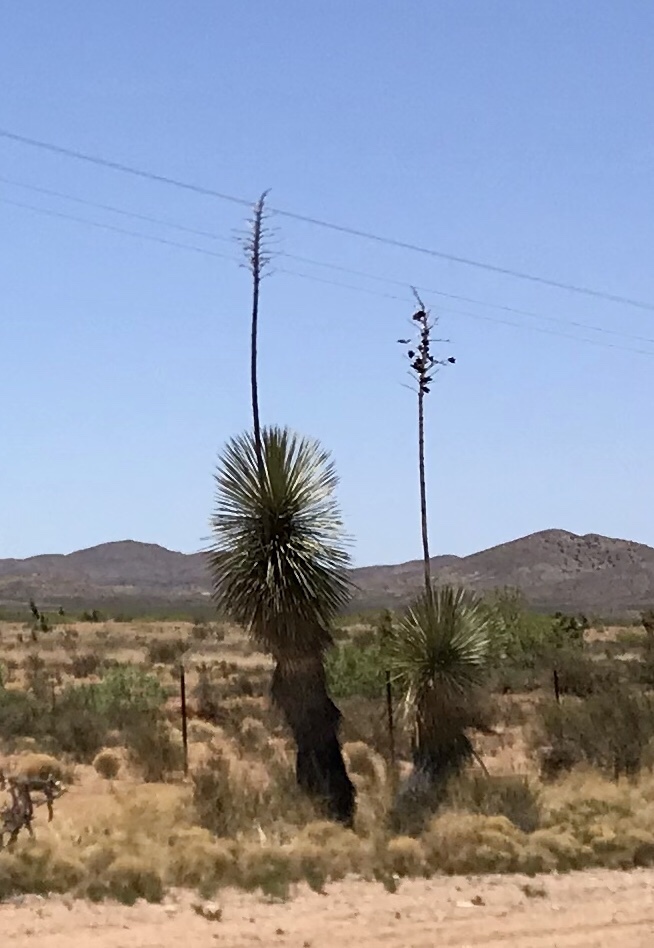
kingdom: Plantae
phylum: Tracheophyta
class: Liliopsida
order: Asparagales
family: Asparagaceae
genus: Yucca
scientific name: Yucca elata
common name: Palmella
